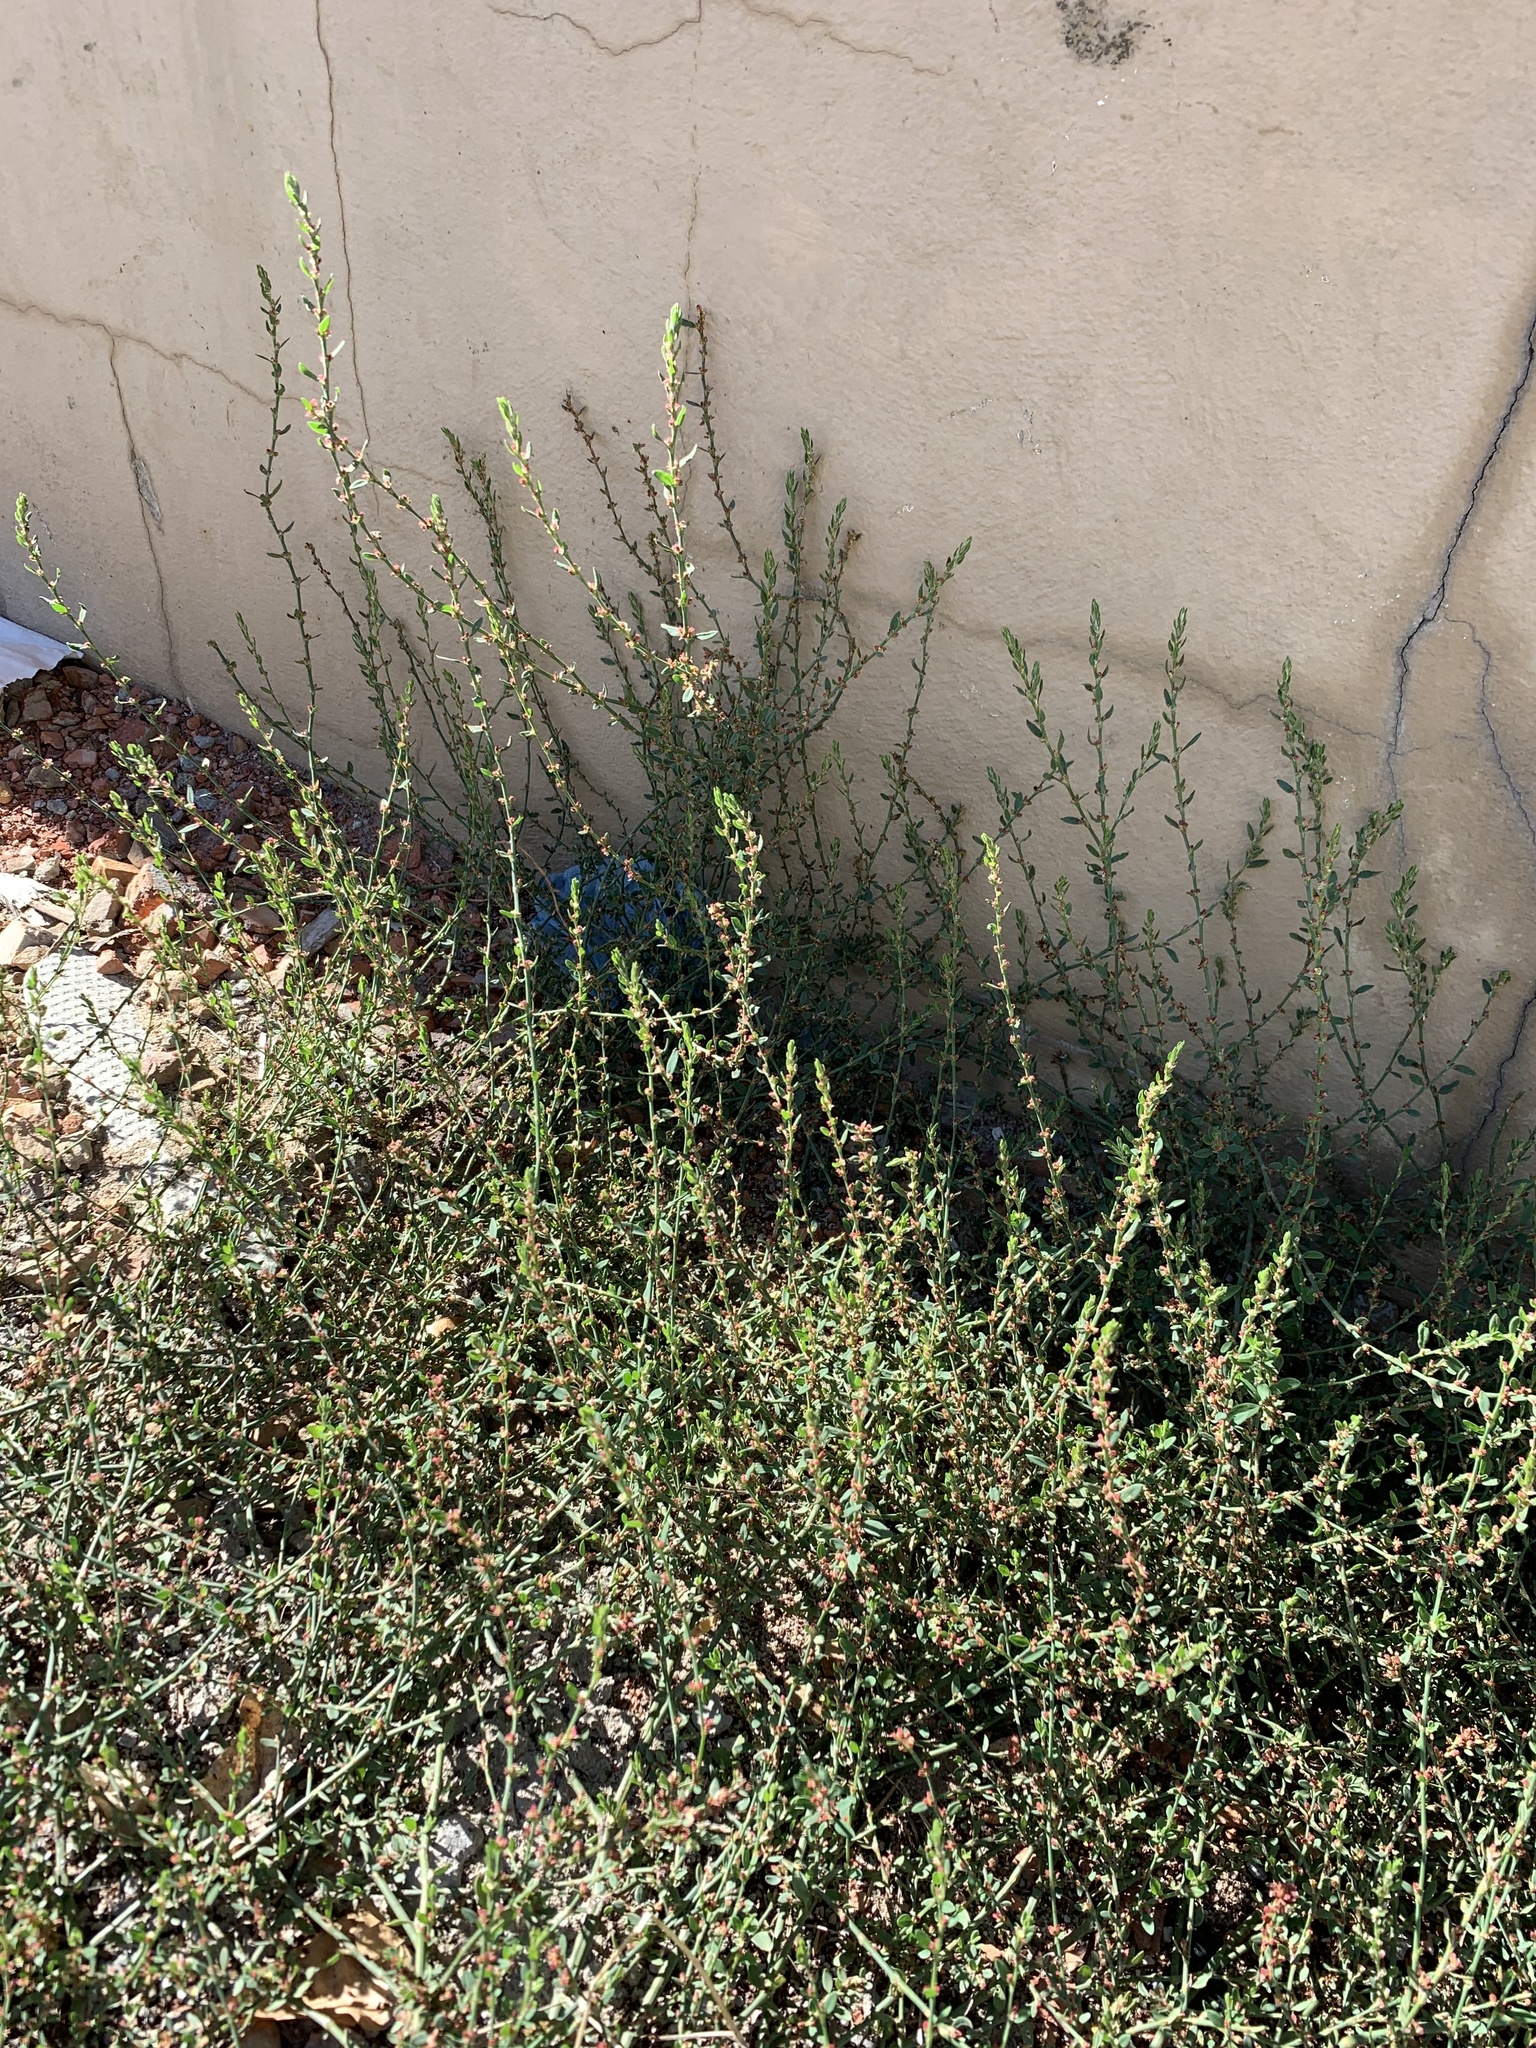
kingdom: Plantae
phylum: Tracheophyta
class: Magnoliopsida
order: Caryophyllales
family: Polygonaceae
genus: Polygonum
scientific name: Polygonum aviculare
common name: Prostrate knotweed
